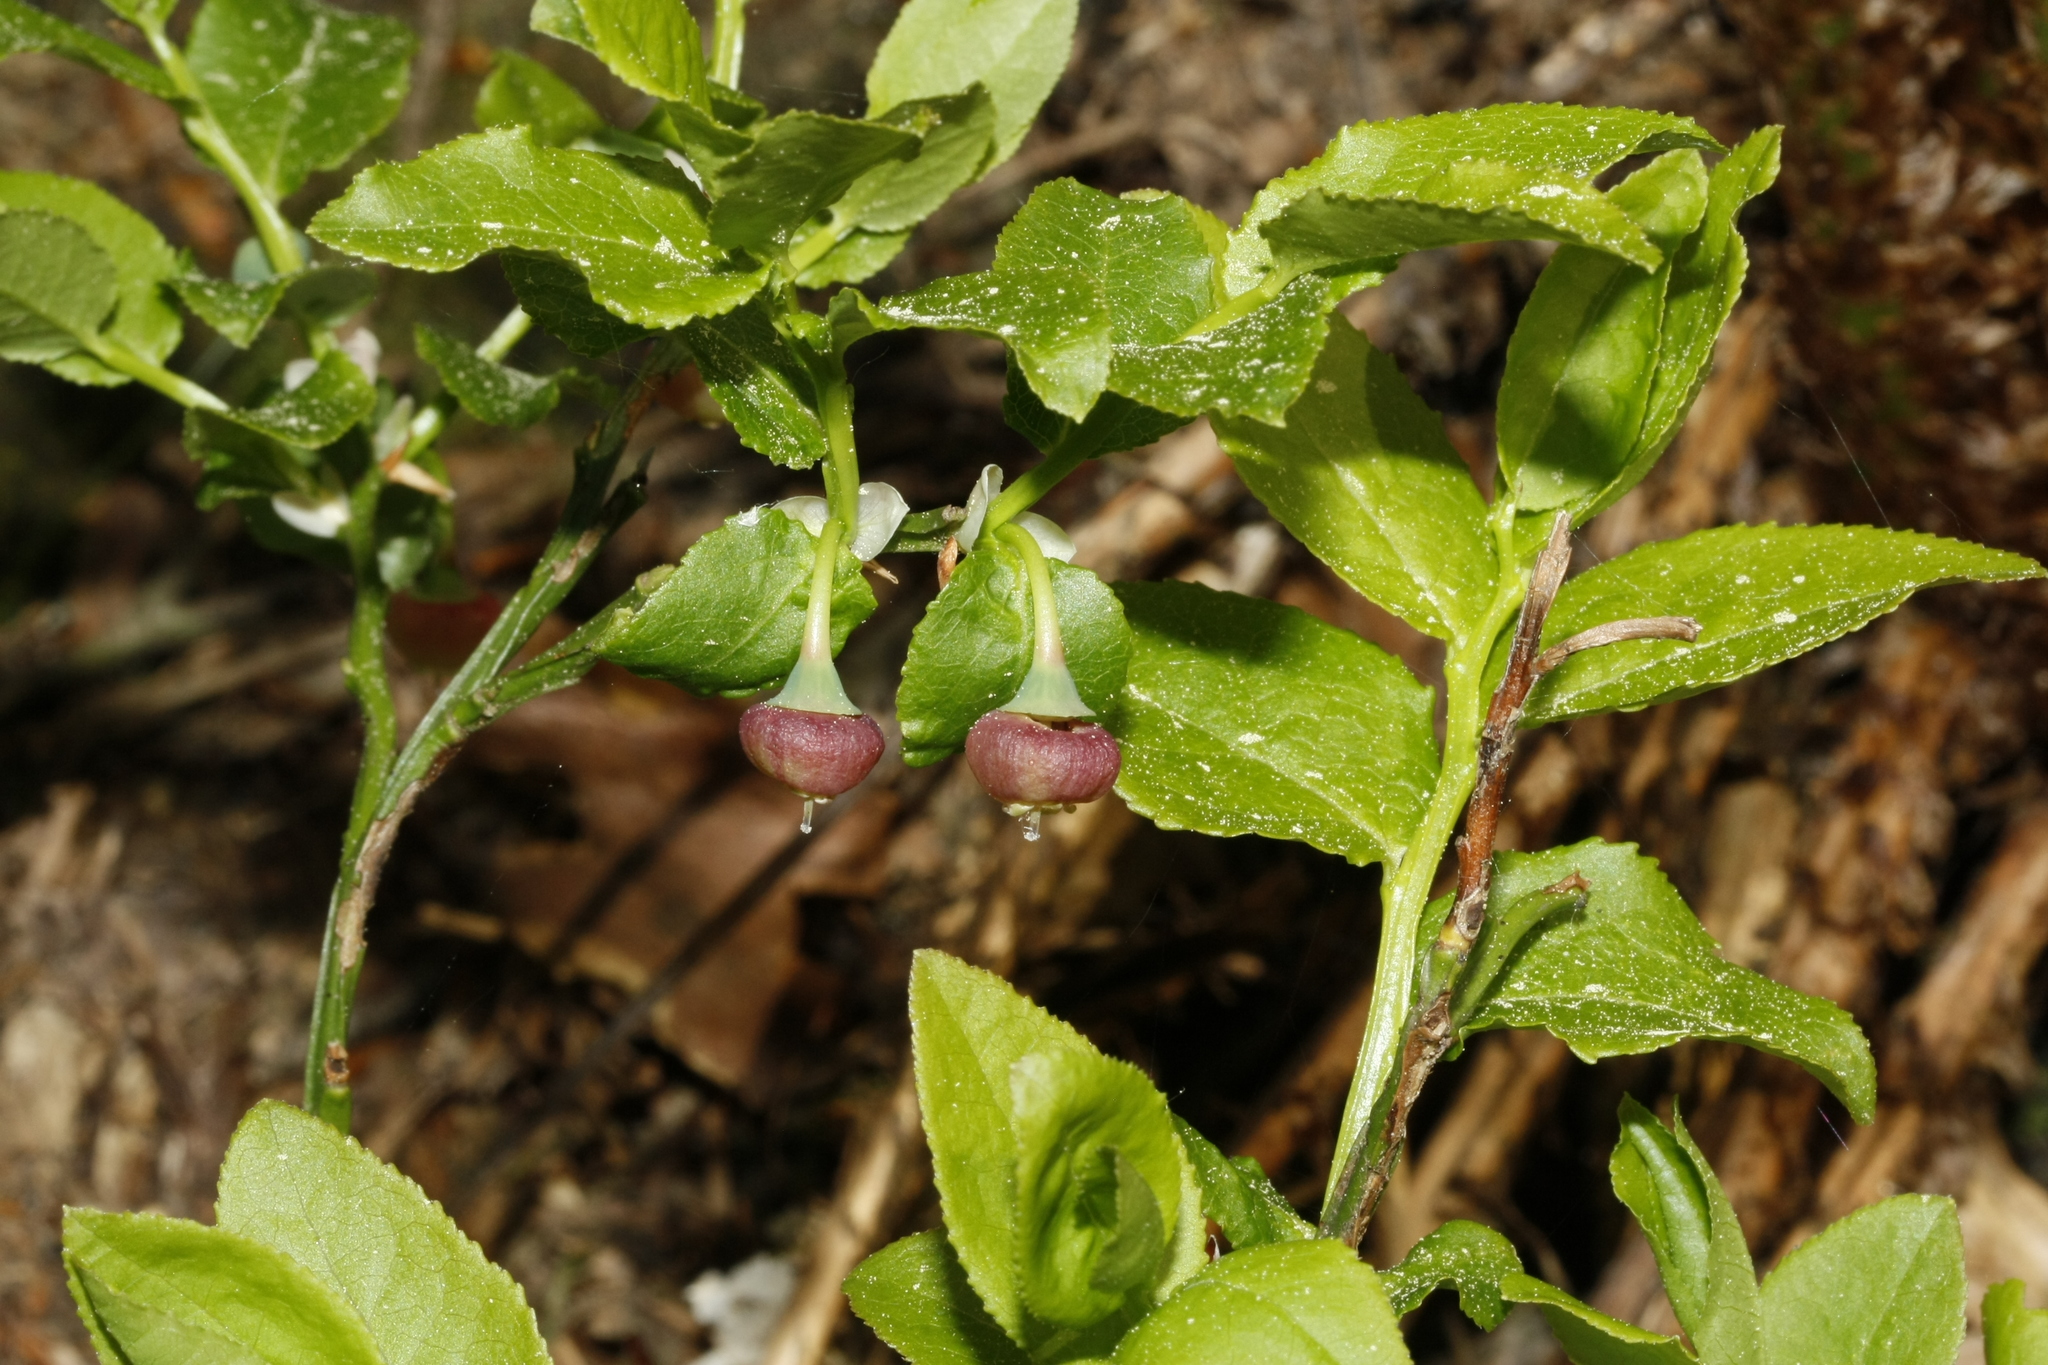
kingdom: Plantae
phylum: Tracheophyta
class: Magnoliopsida
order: Ericales
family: Ericaceae
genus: Vaccinium
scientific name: Vaccinium myrtillus
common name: Bilberry
